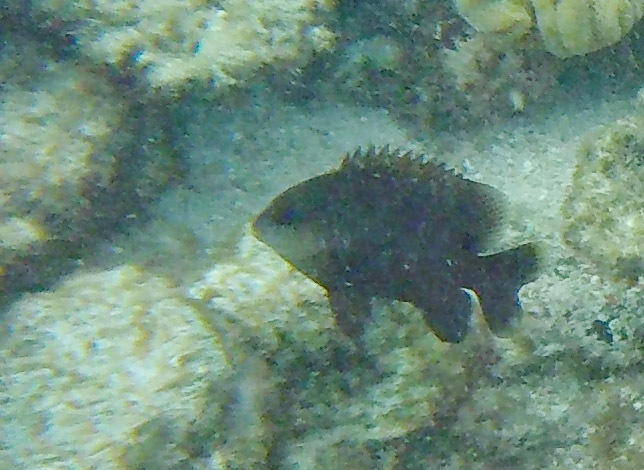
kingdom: Animalia
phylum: Chordata
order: Perciformes
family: Pomacentridae
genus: Stegastes
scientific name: Stegastes nigricans
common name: Dusky gregory
